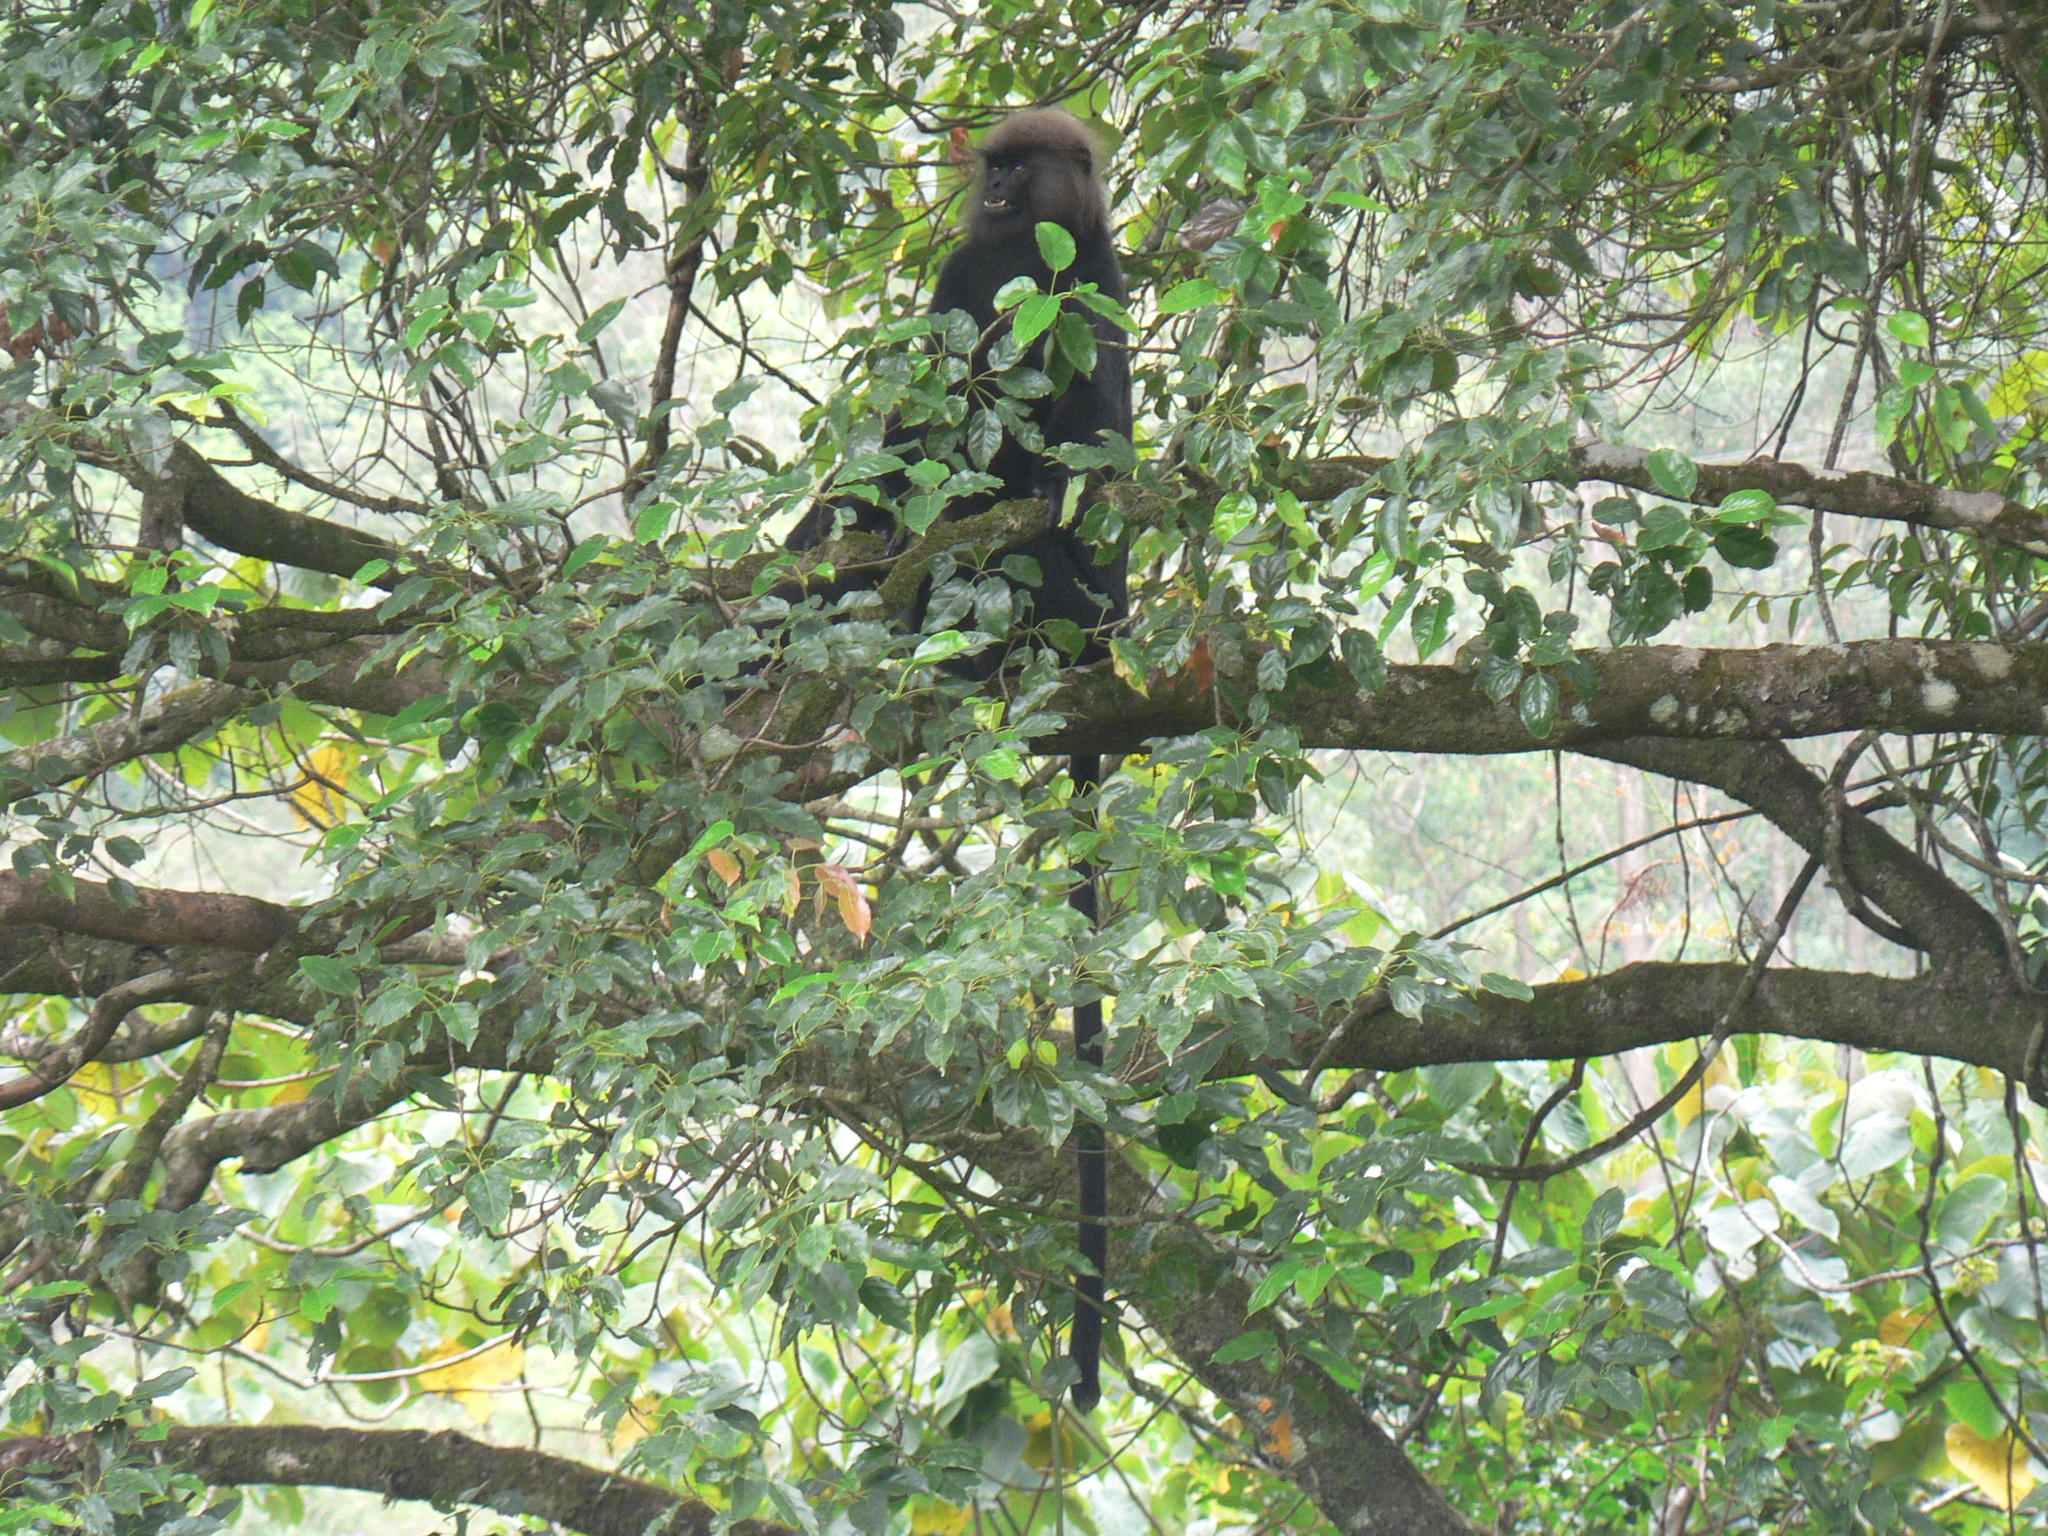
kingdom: Animalia
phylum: Chordata
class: Mammalia
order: Primates
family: Cercopithecidae
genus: Semnopithecus
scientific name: Semnopithecus johnii
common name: Nilgiri langur
